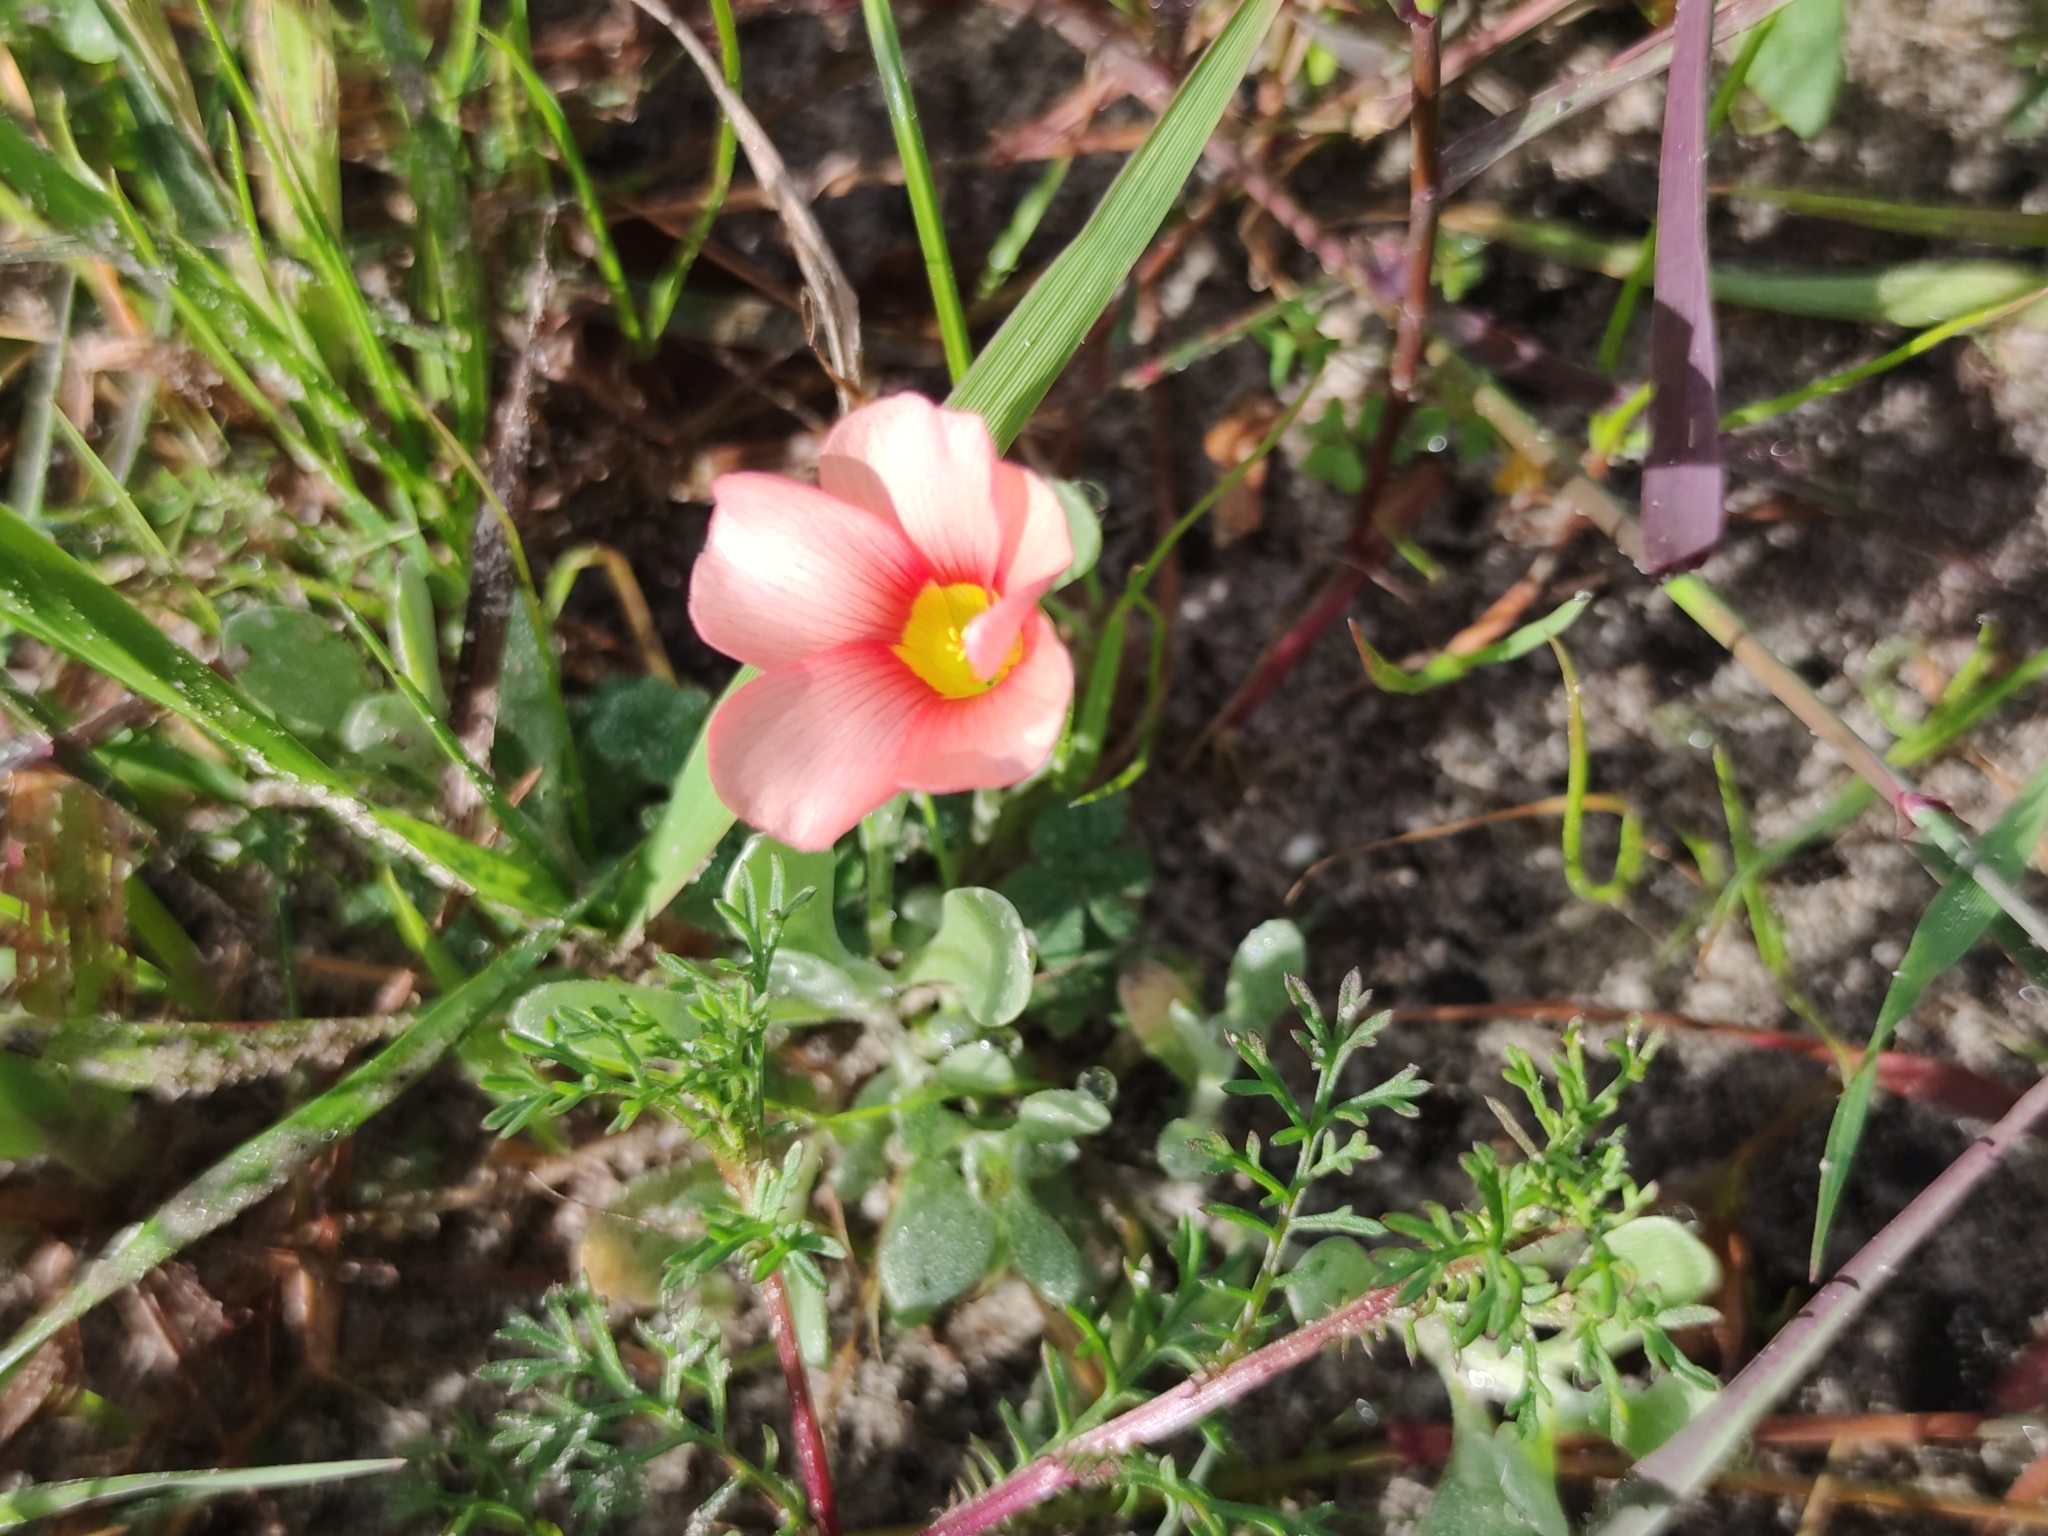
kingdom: Plantae
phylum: Tracheophyta
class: Magnoliopsida
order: Oxalidales
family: Oxalidaceae
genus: Oxalis
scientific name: Oxalis obtusa
